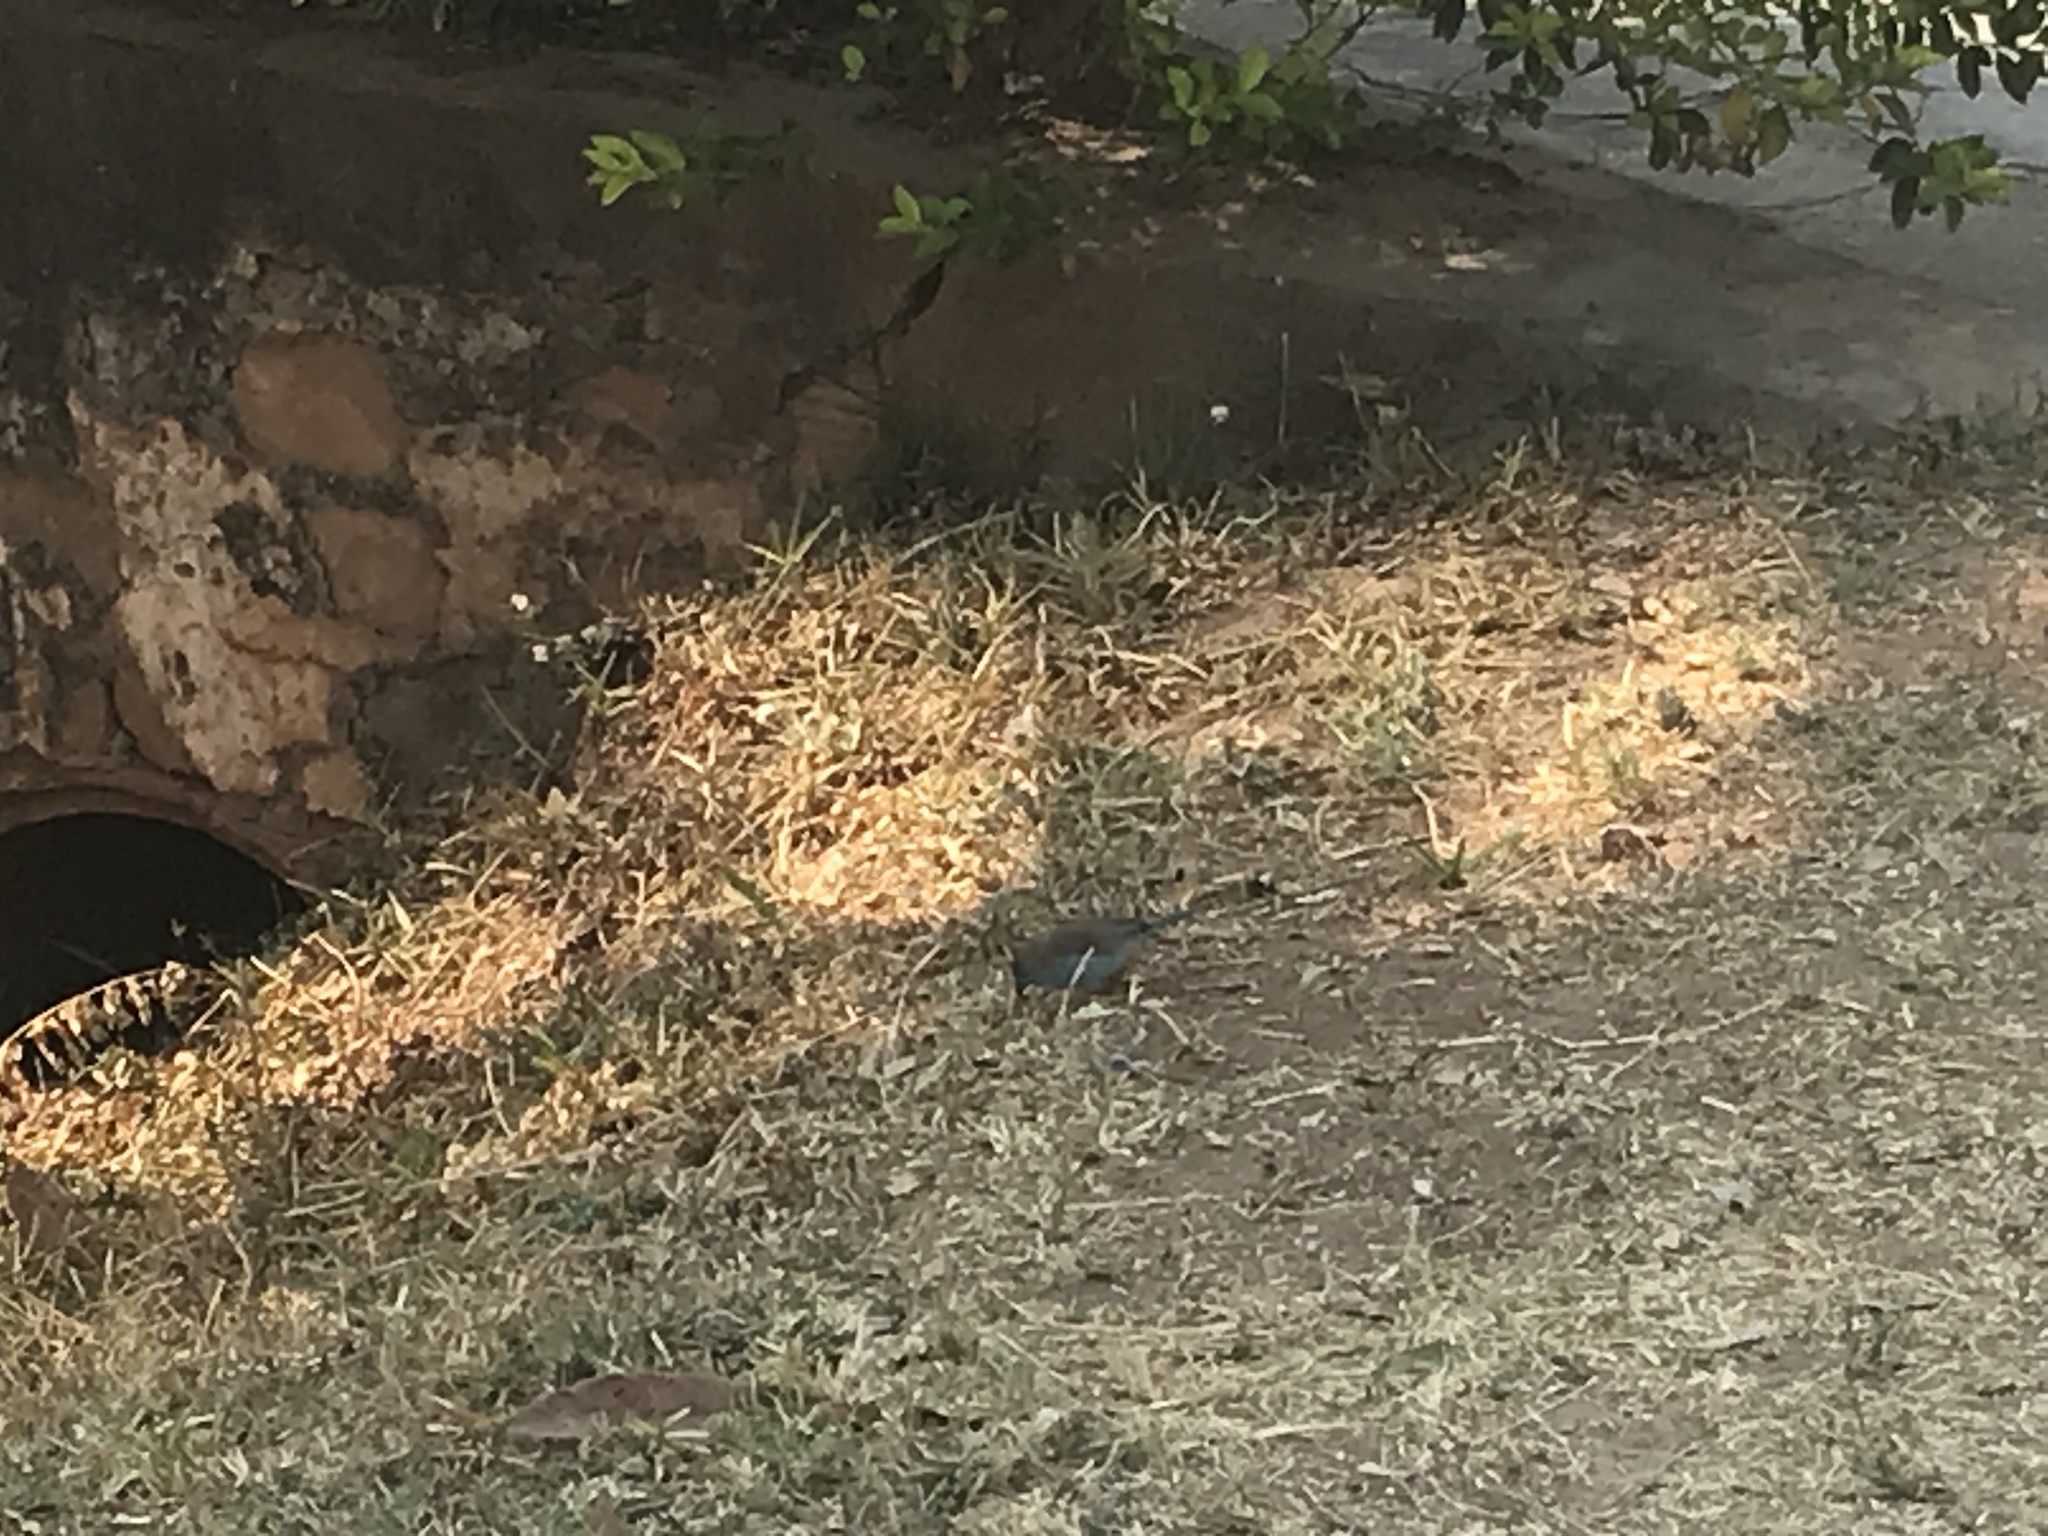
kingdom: Animalia
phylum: Chordata
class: Aves
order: Passeriformes
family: Estrildidae
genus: Uraeginthus
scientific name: Uraeginthus angolensis
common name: Blue waxbill
